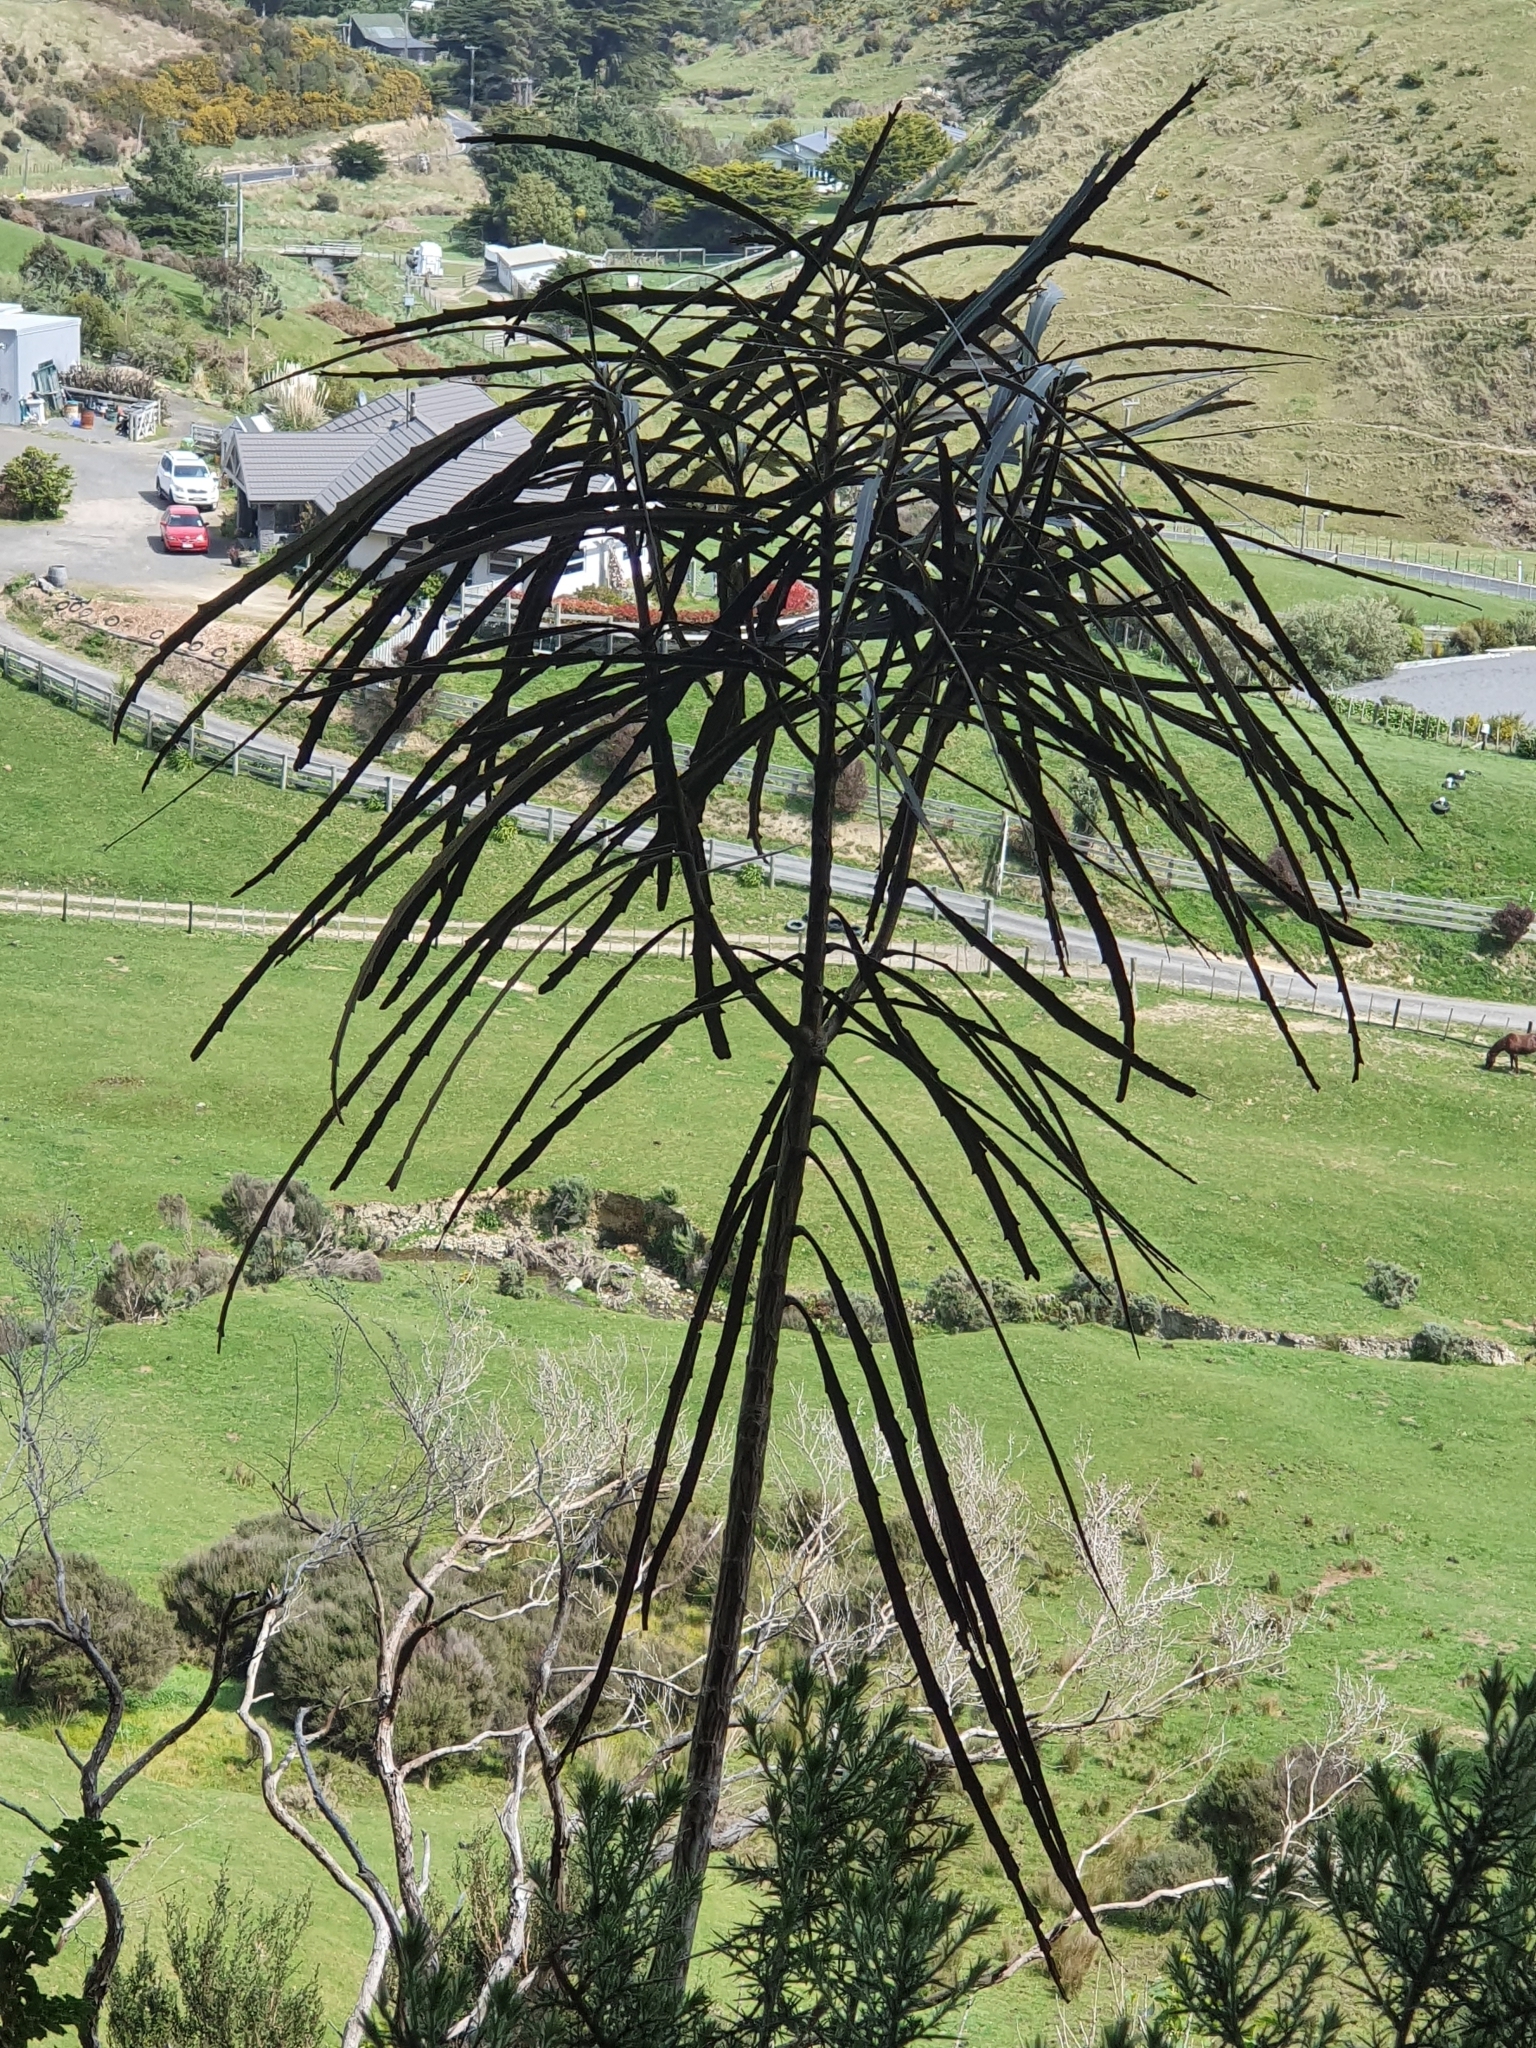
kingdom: Plantae
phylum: Tracheophyta
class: Magnoliopsida
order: Apiales
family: Araliaceae
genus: Pseudopanax
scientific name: Pseudopanax crassifolius
